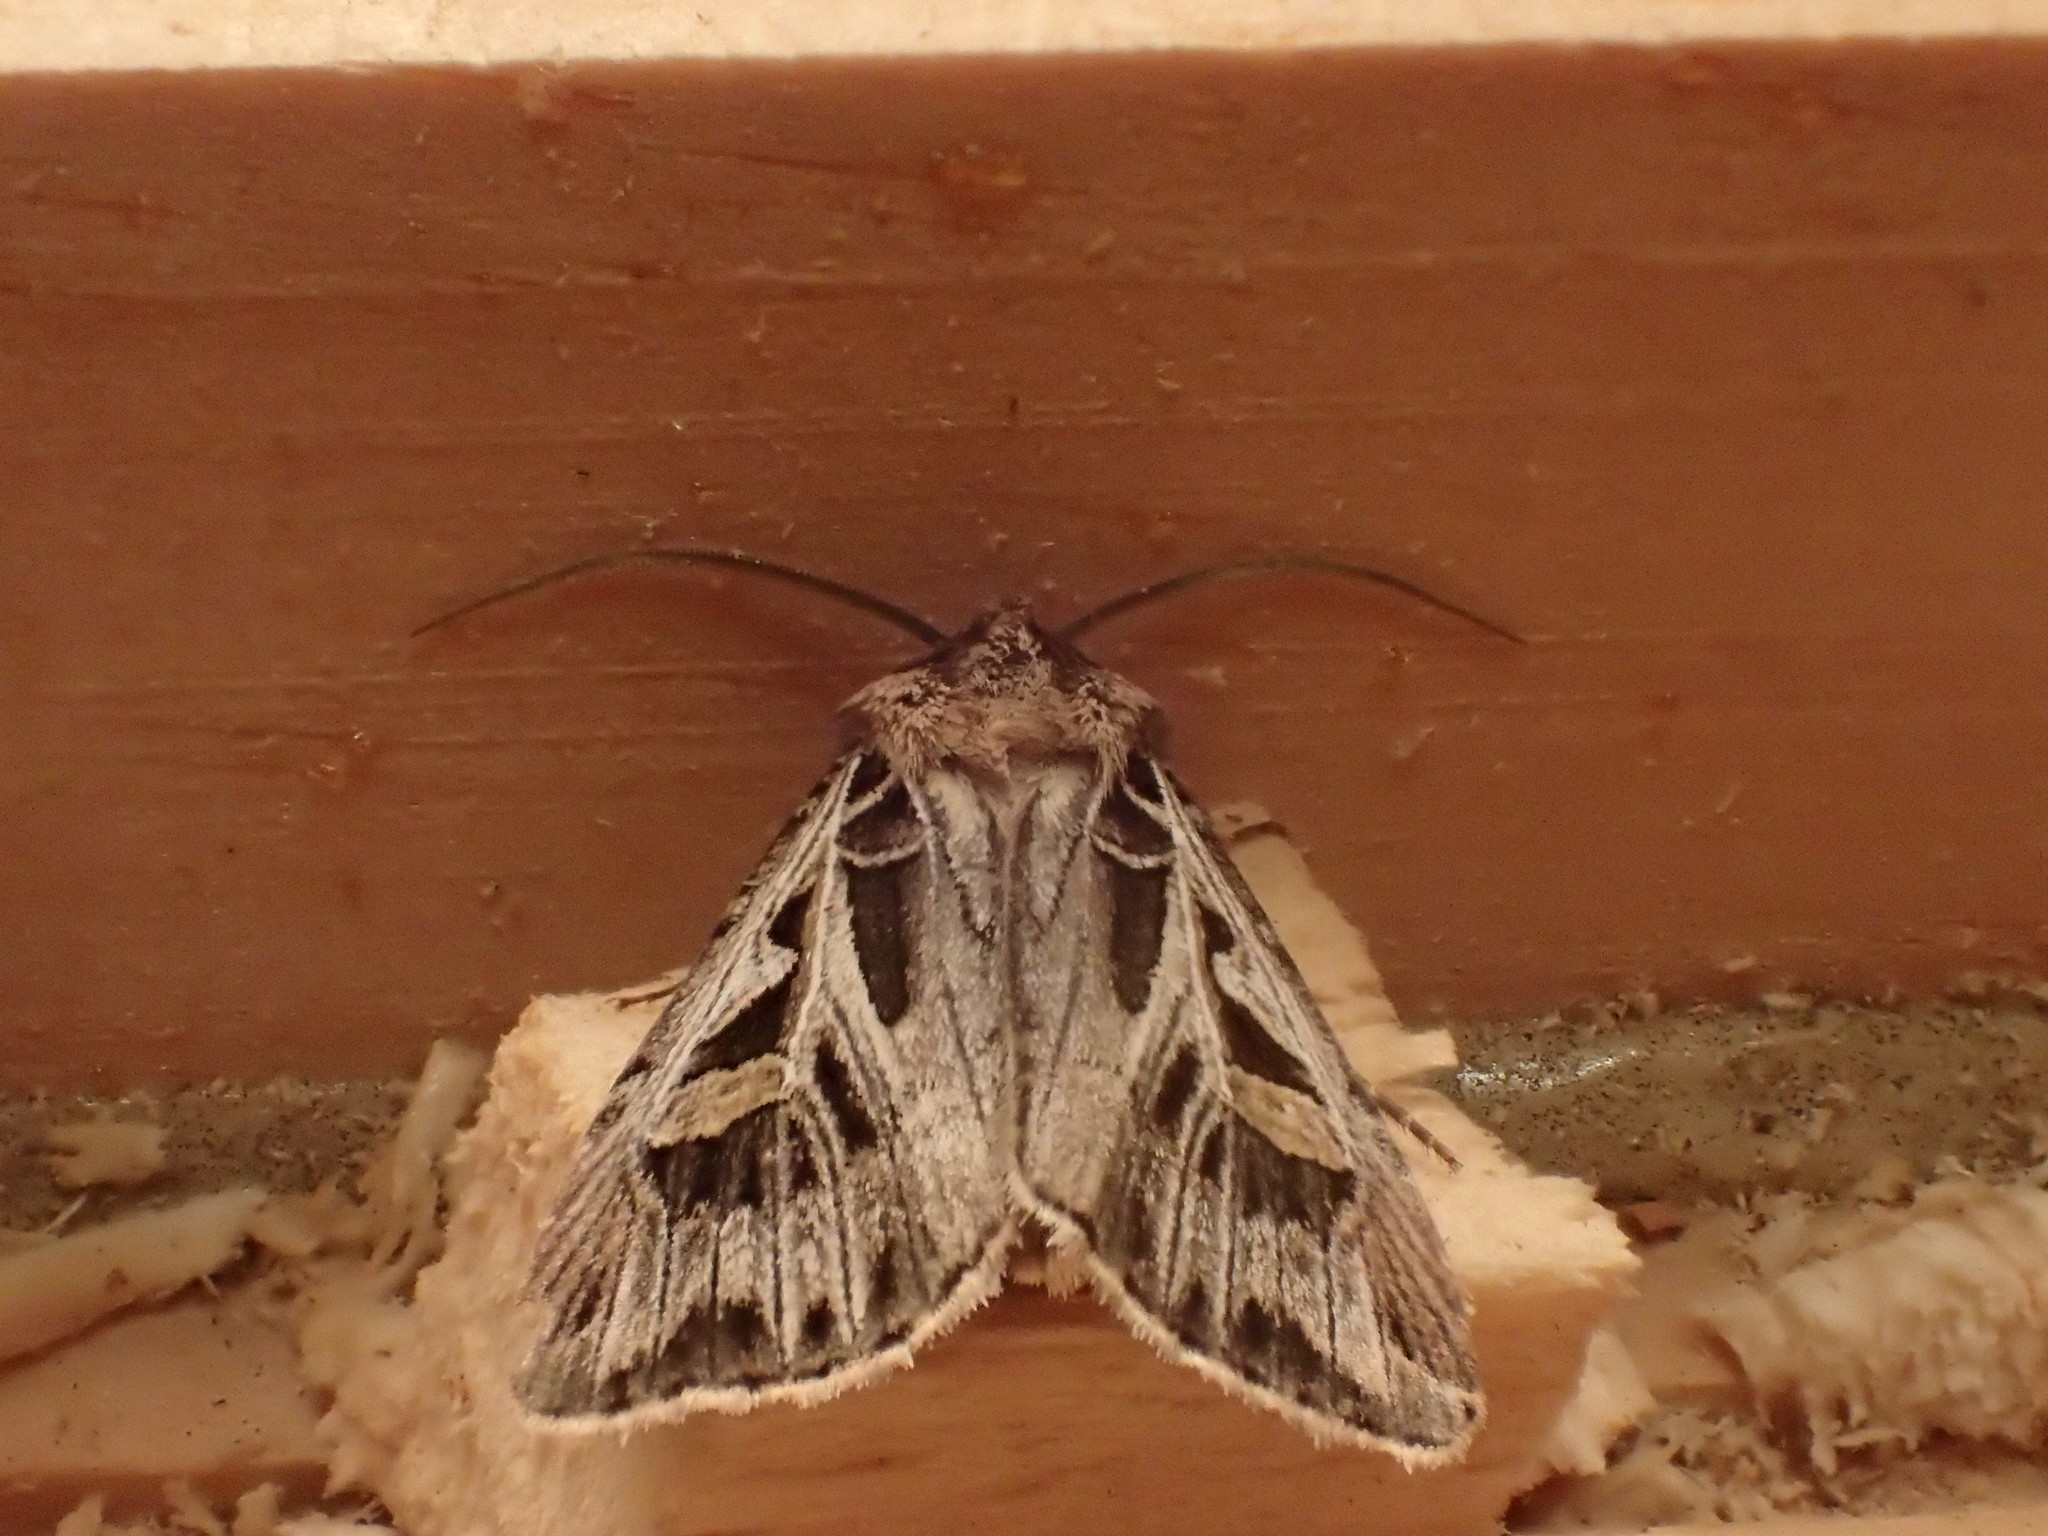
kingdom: Animalia
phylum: Arthropoda
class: Insecta
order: Lepidoptera
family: Noctuidae
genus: Feltia
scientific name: Feltia jaculifera
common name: Dingy cutworm moth
